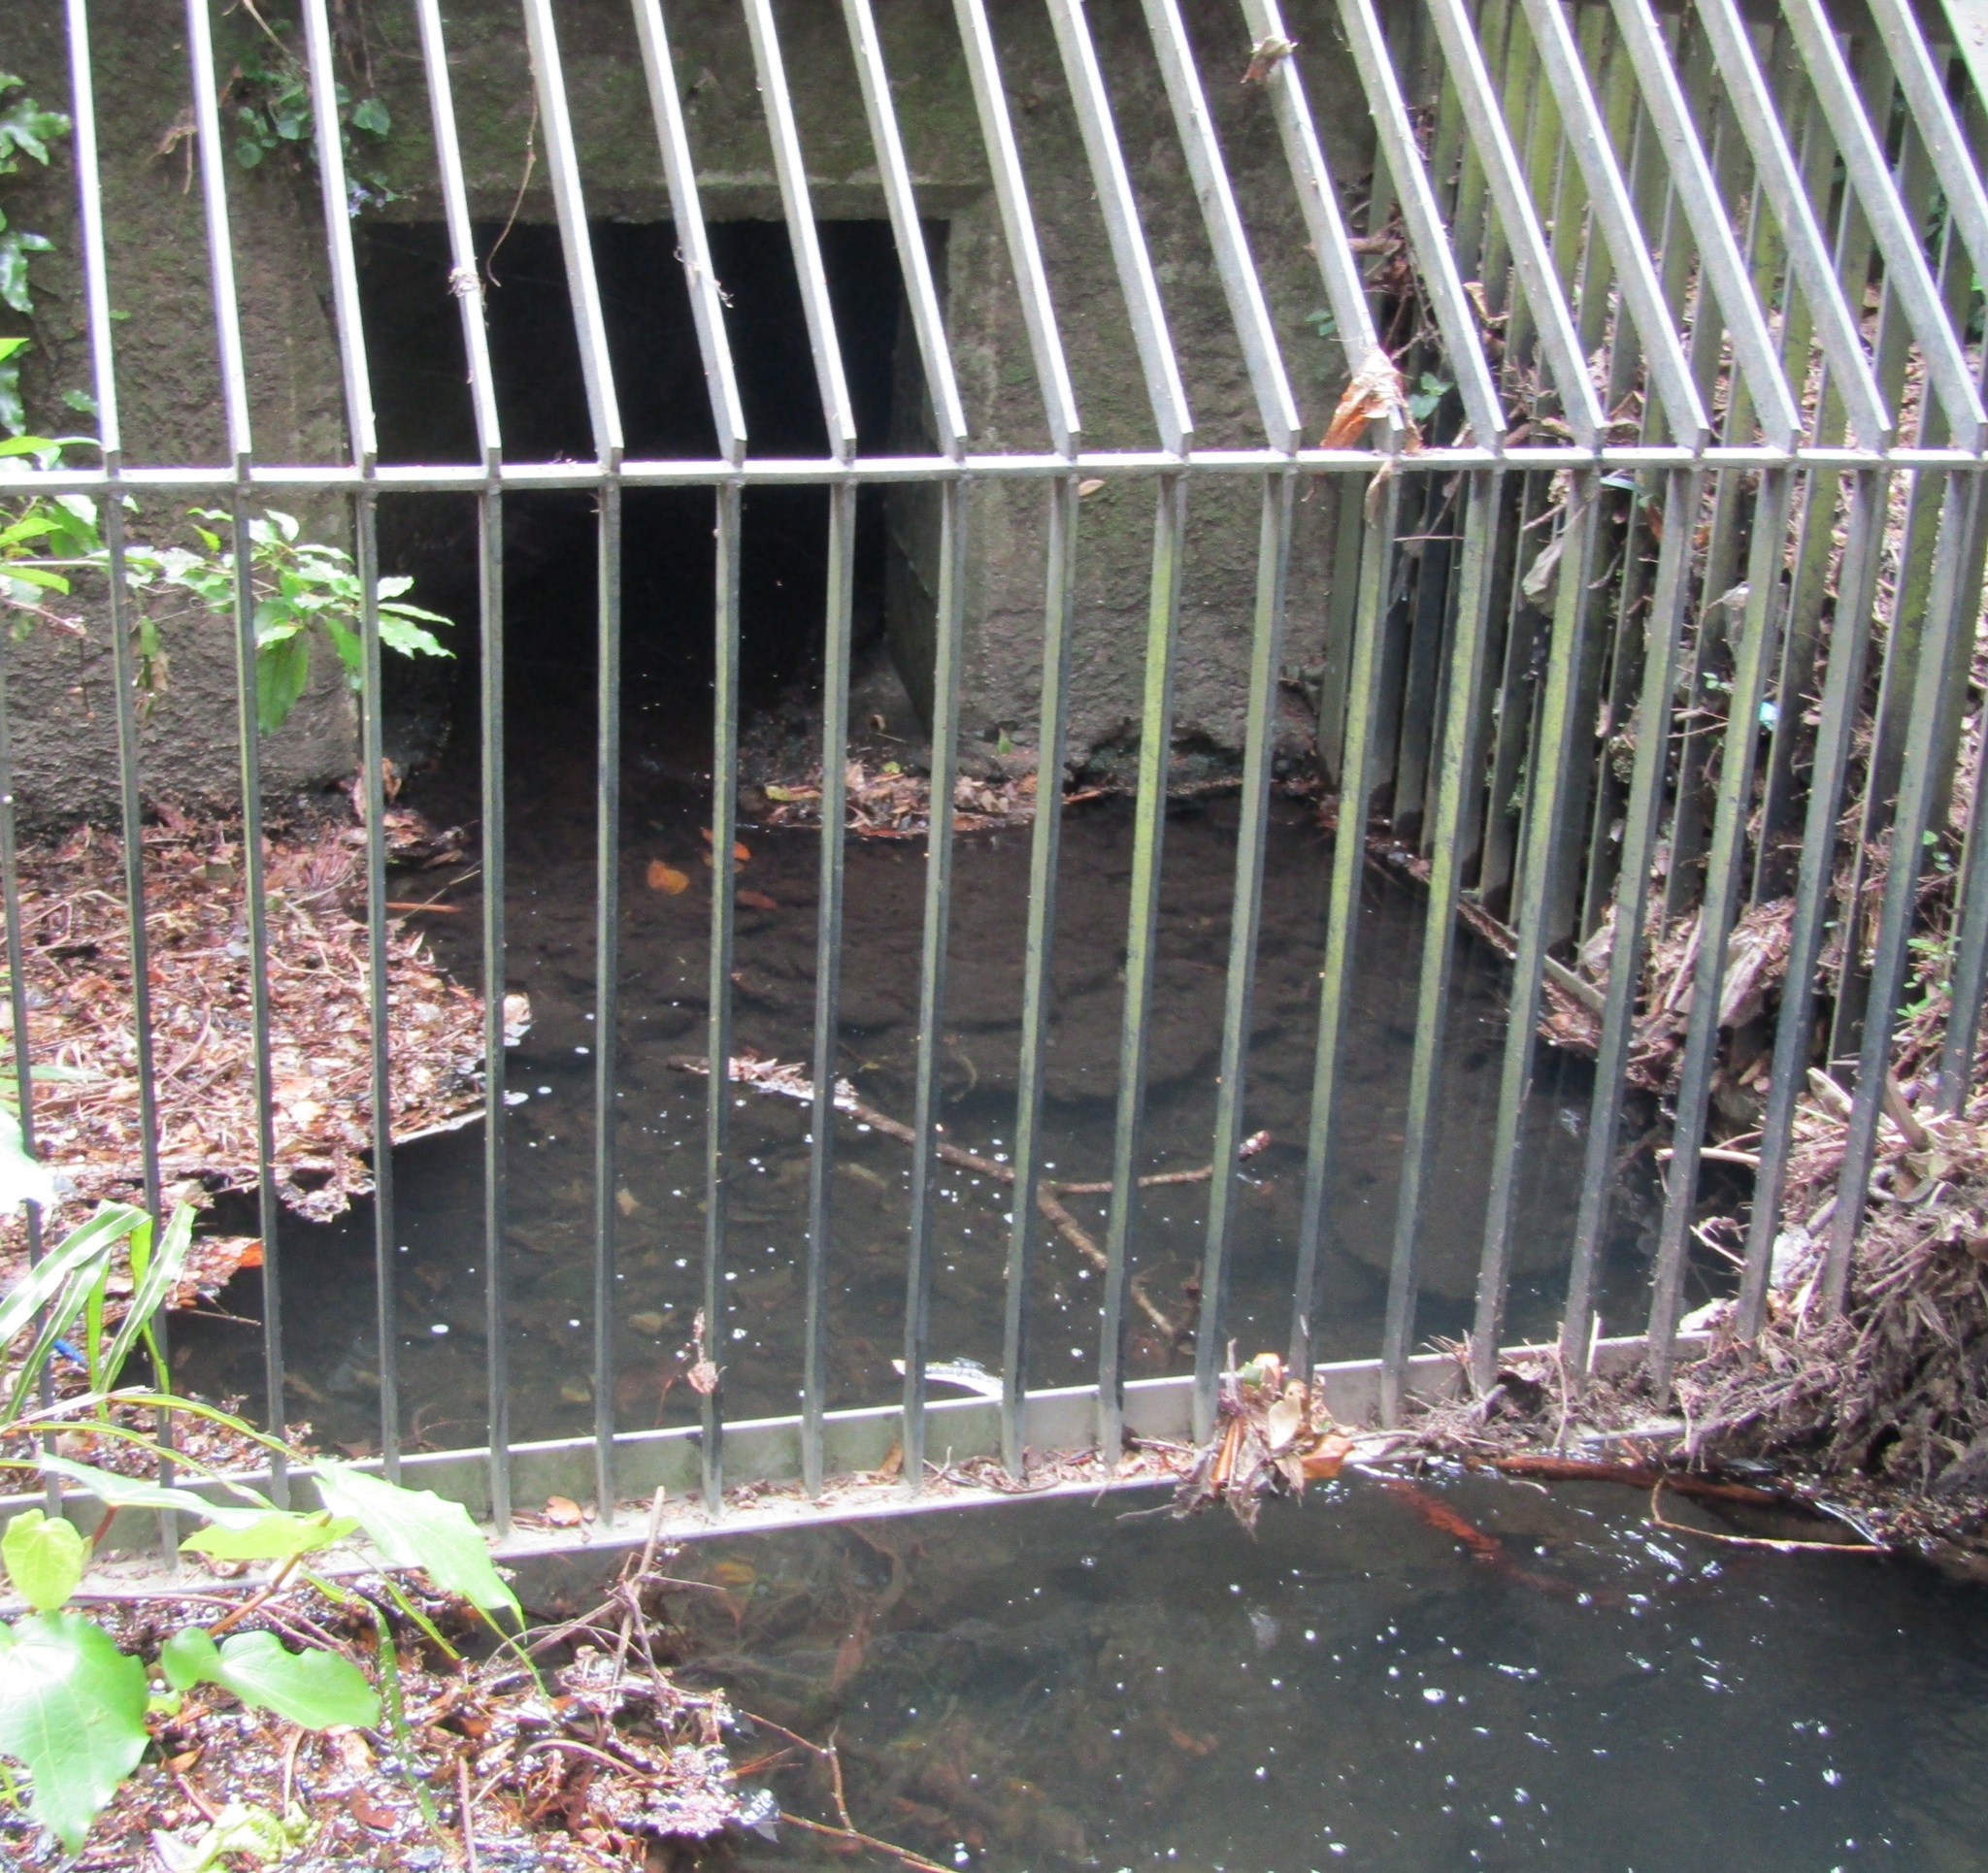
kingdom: Animalia
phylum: Chordata
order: Osmeriformes
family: Galaxiidae
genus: Galaxias
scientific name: Galaxias fasciatus
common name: Banded kokopu
